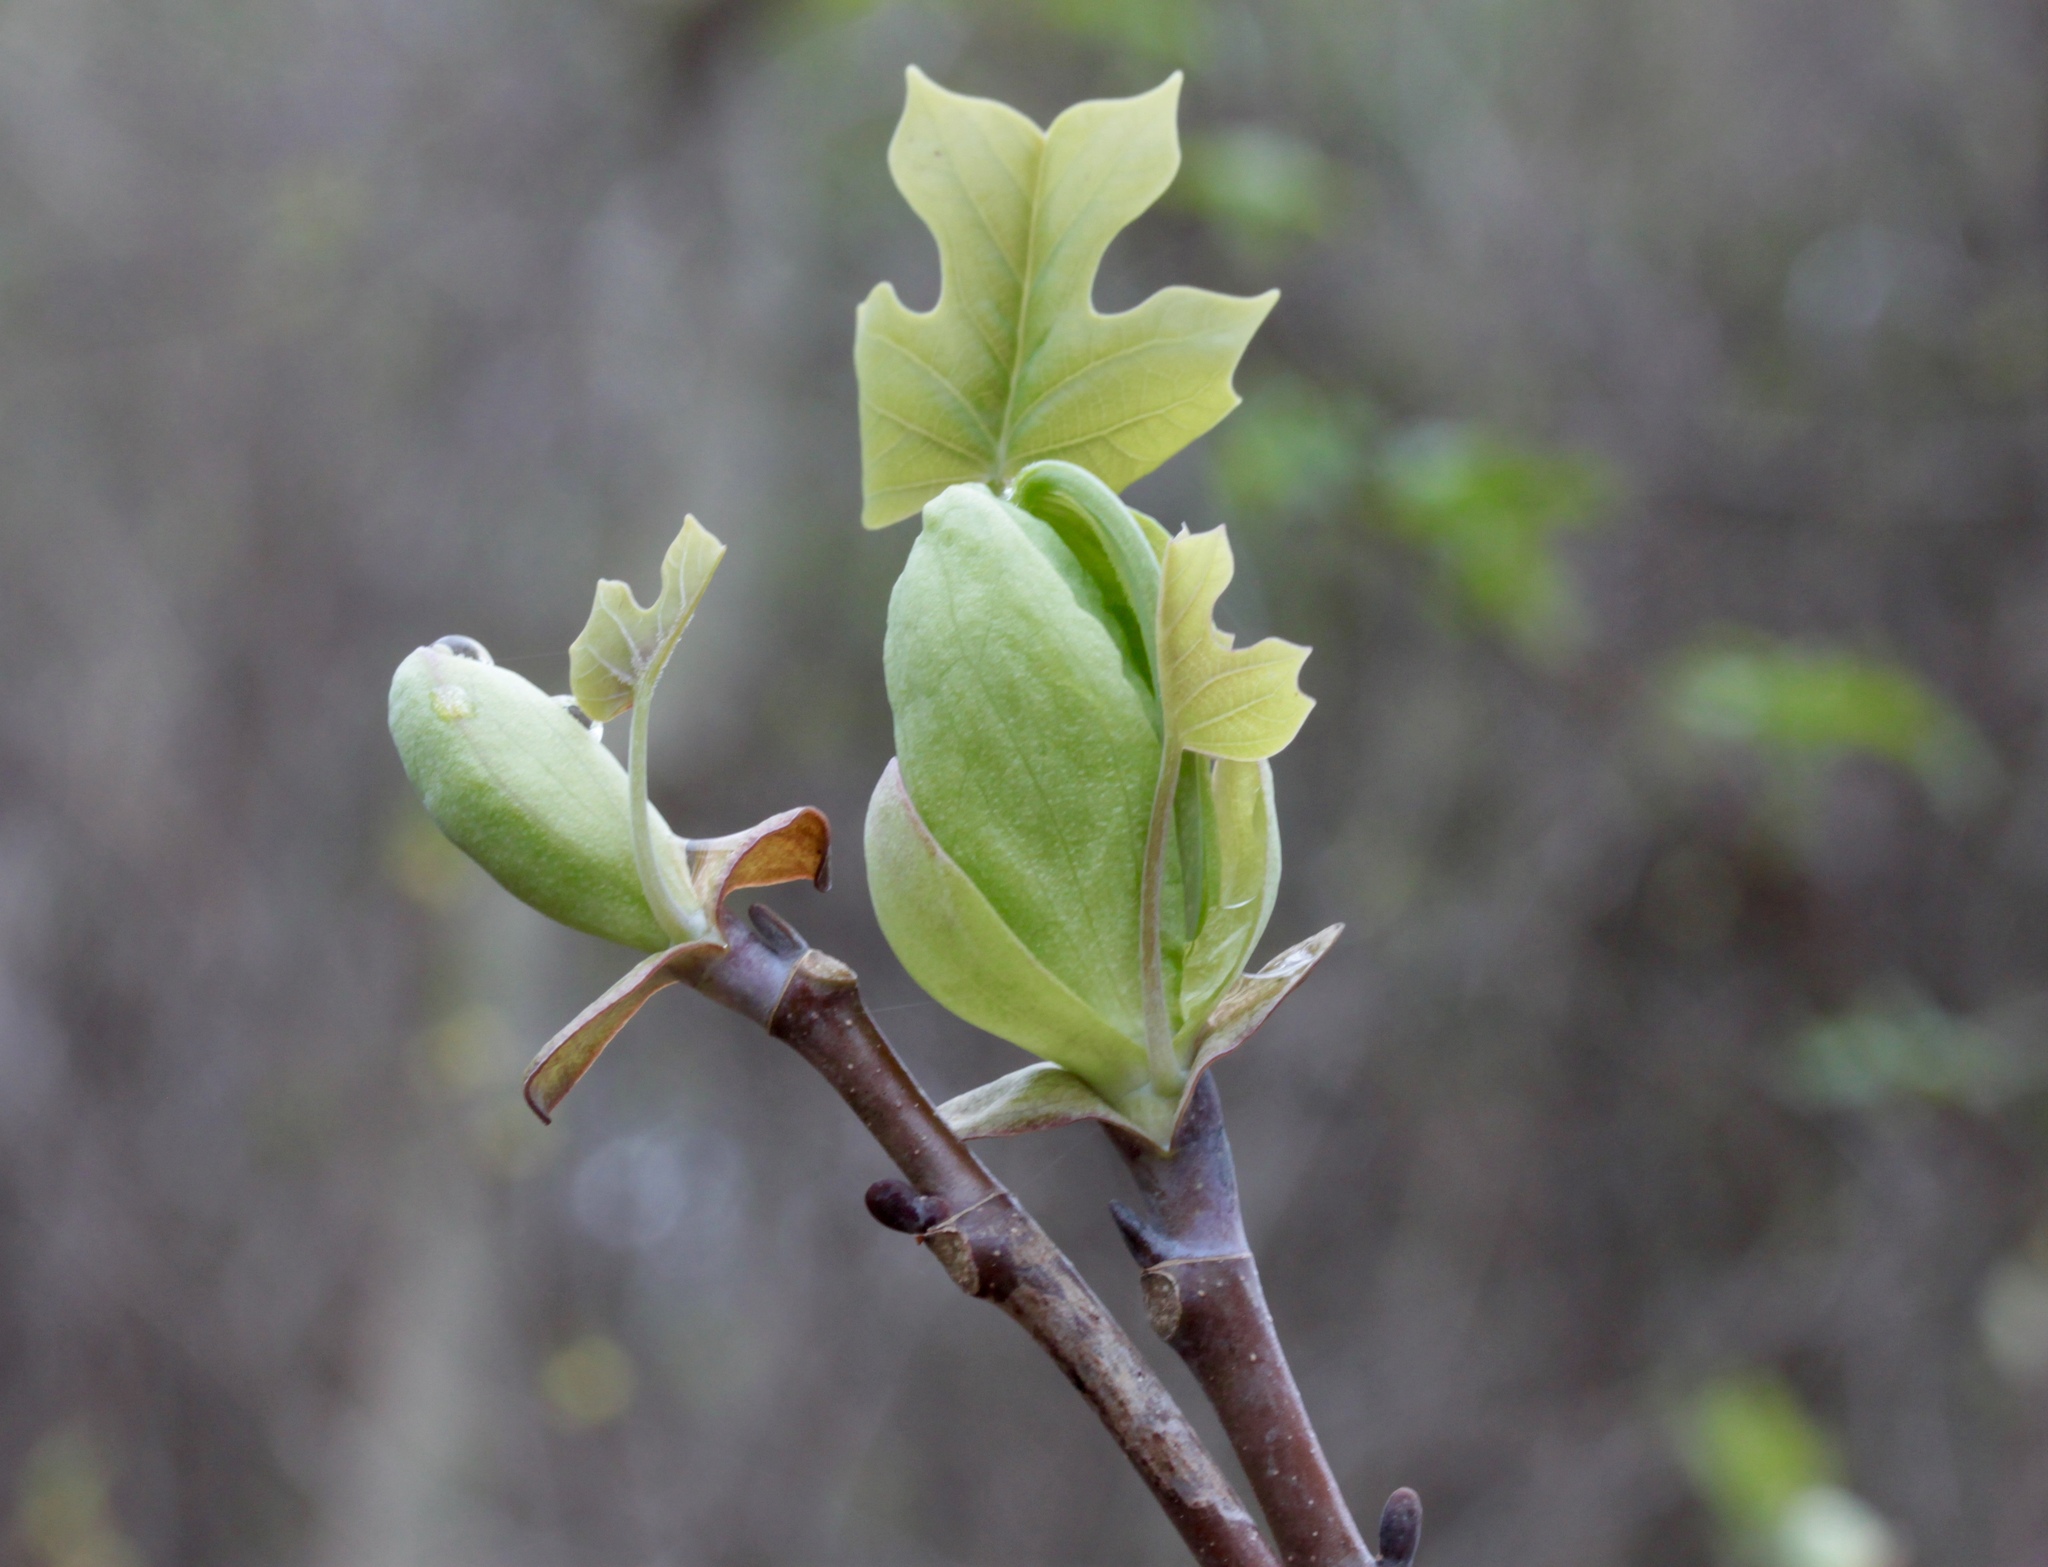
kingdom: Plantae
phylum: Tracheophyta
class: Magnoliopsida
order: Magnoliales
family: Magnoliaceae
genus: Liriodendron
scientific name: Liriodendron tulipifera
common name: Tulip tree
